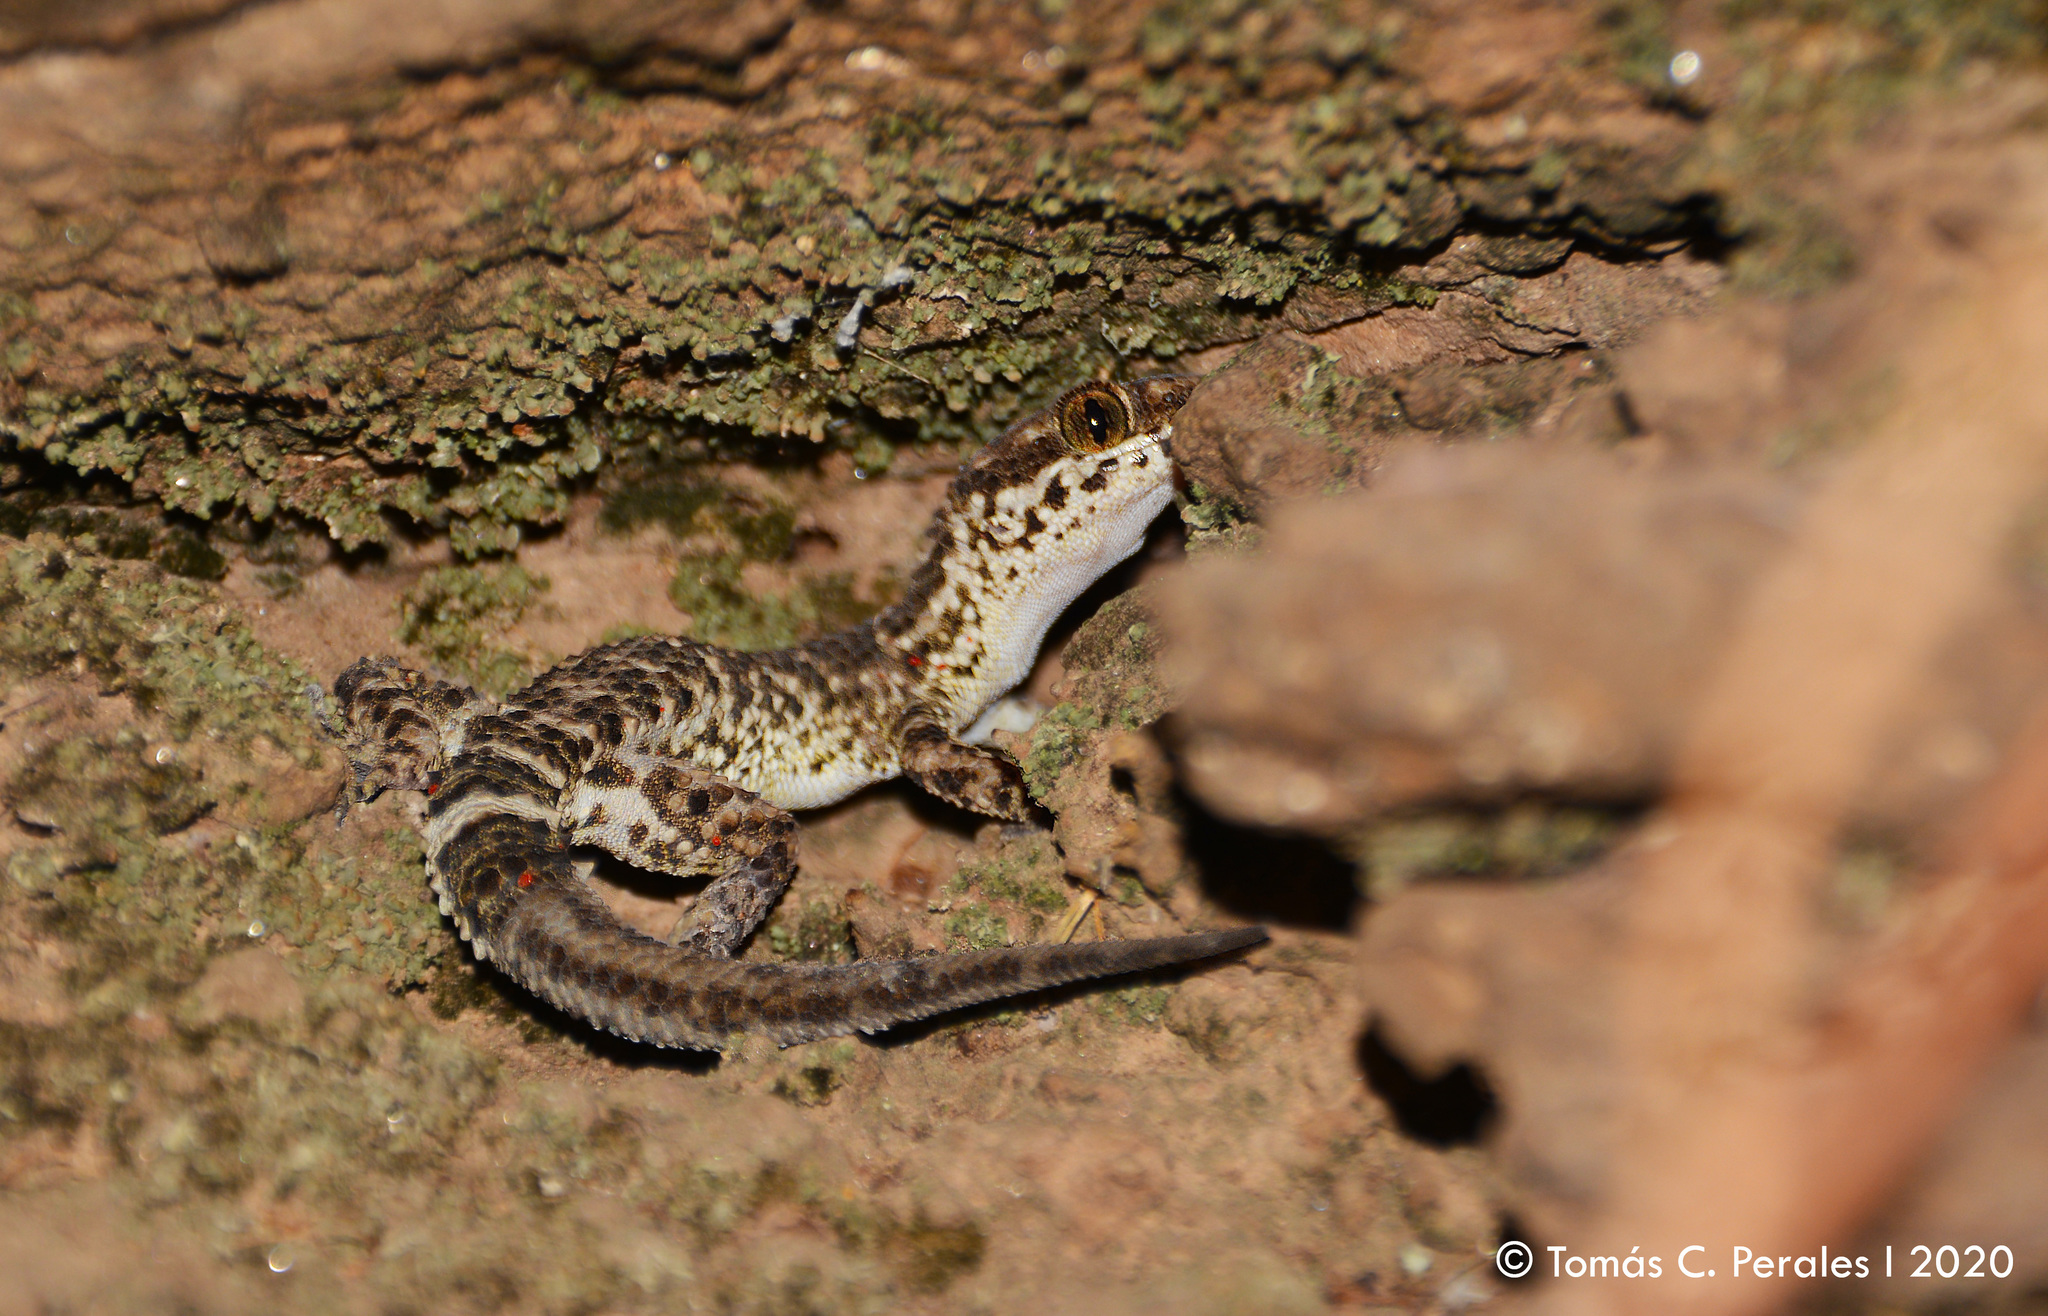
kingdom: Animalia
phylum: Chordata
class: Squamata
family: Phyllodactylidae
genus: Homonota
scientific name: Homonota horrida
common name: South american marked gecko
